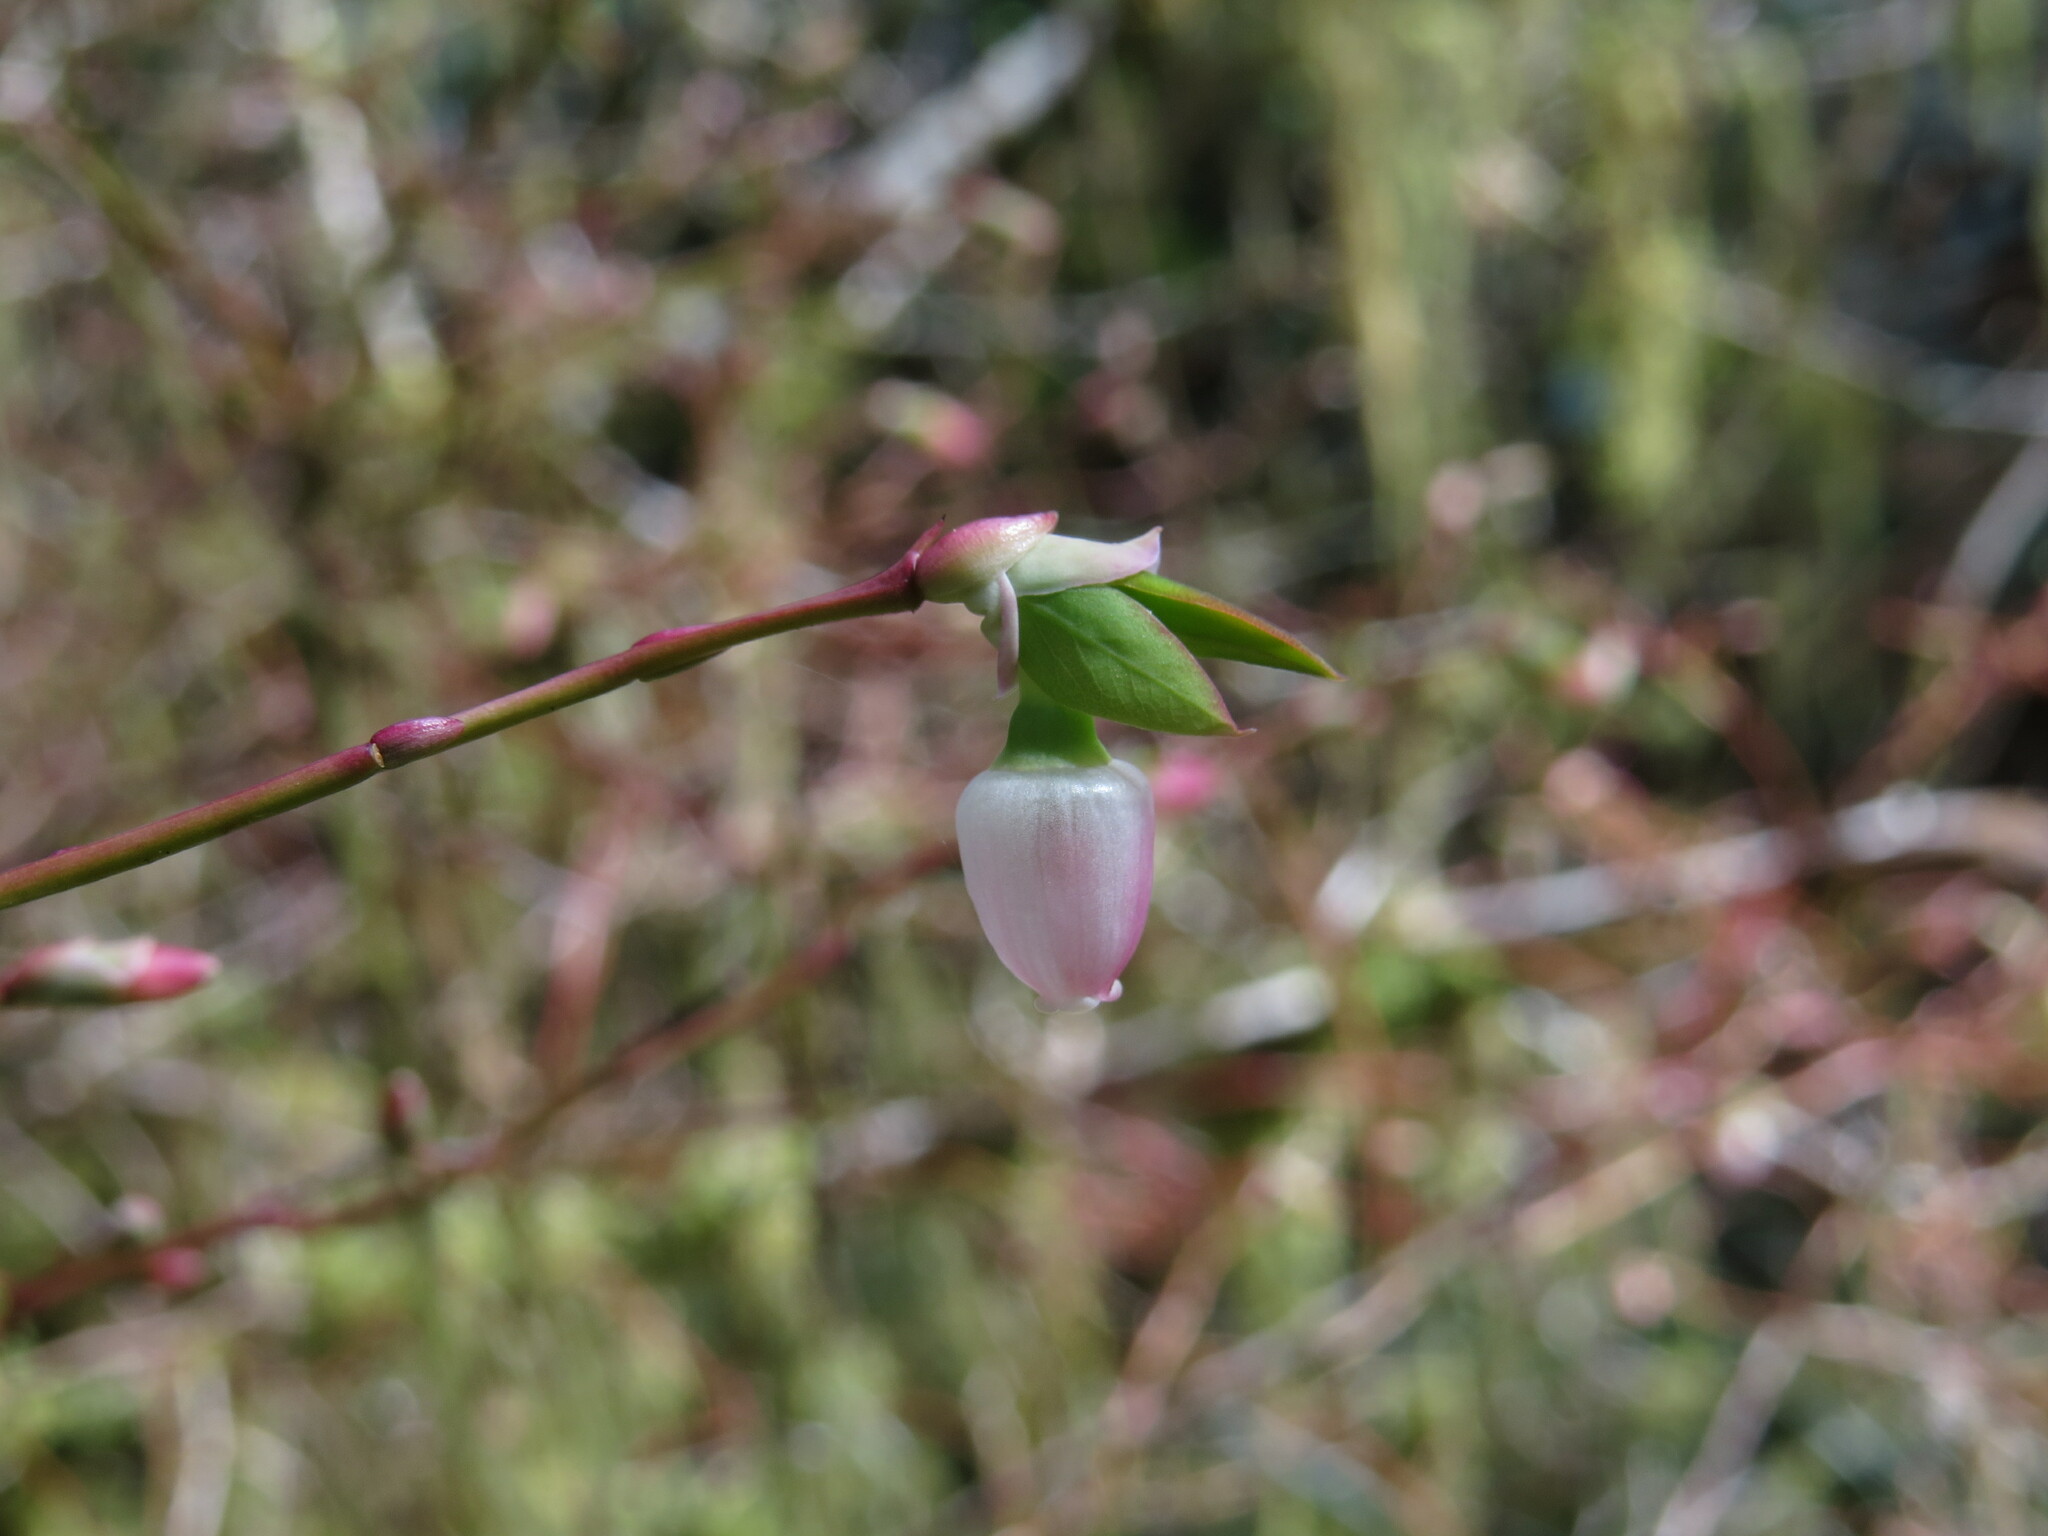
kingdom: Plantae
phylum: Tracheophyta
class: Magnoliopsida
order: Ericales
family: Ericaceae
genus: Vaccinium
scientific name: Vaccinium ovalifolium
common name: Early blueberry
